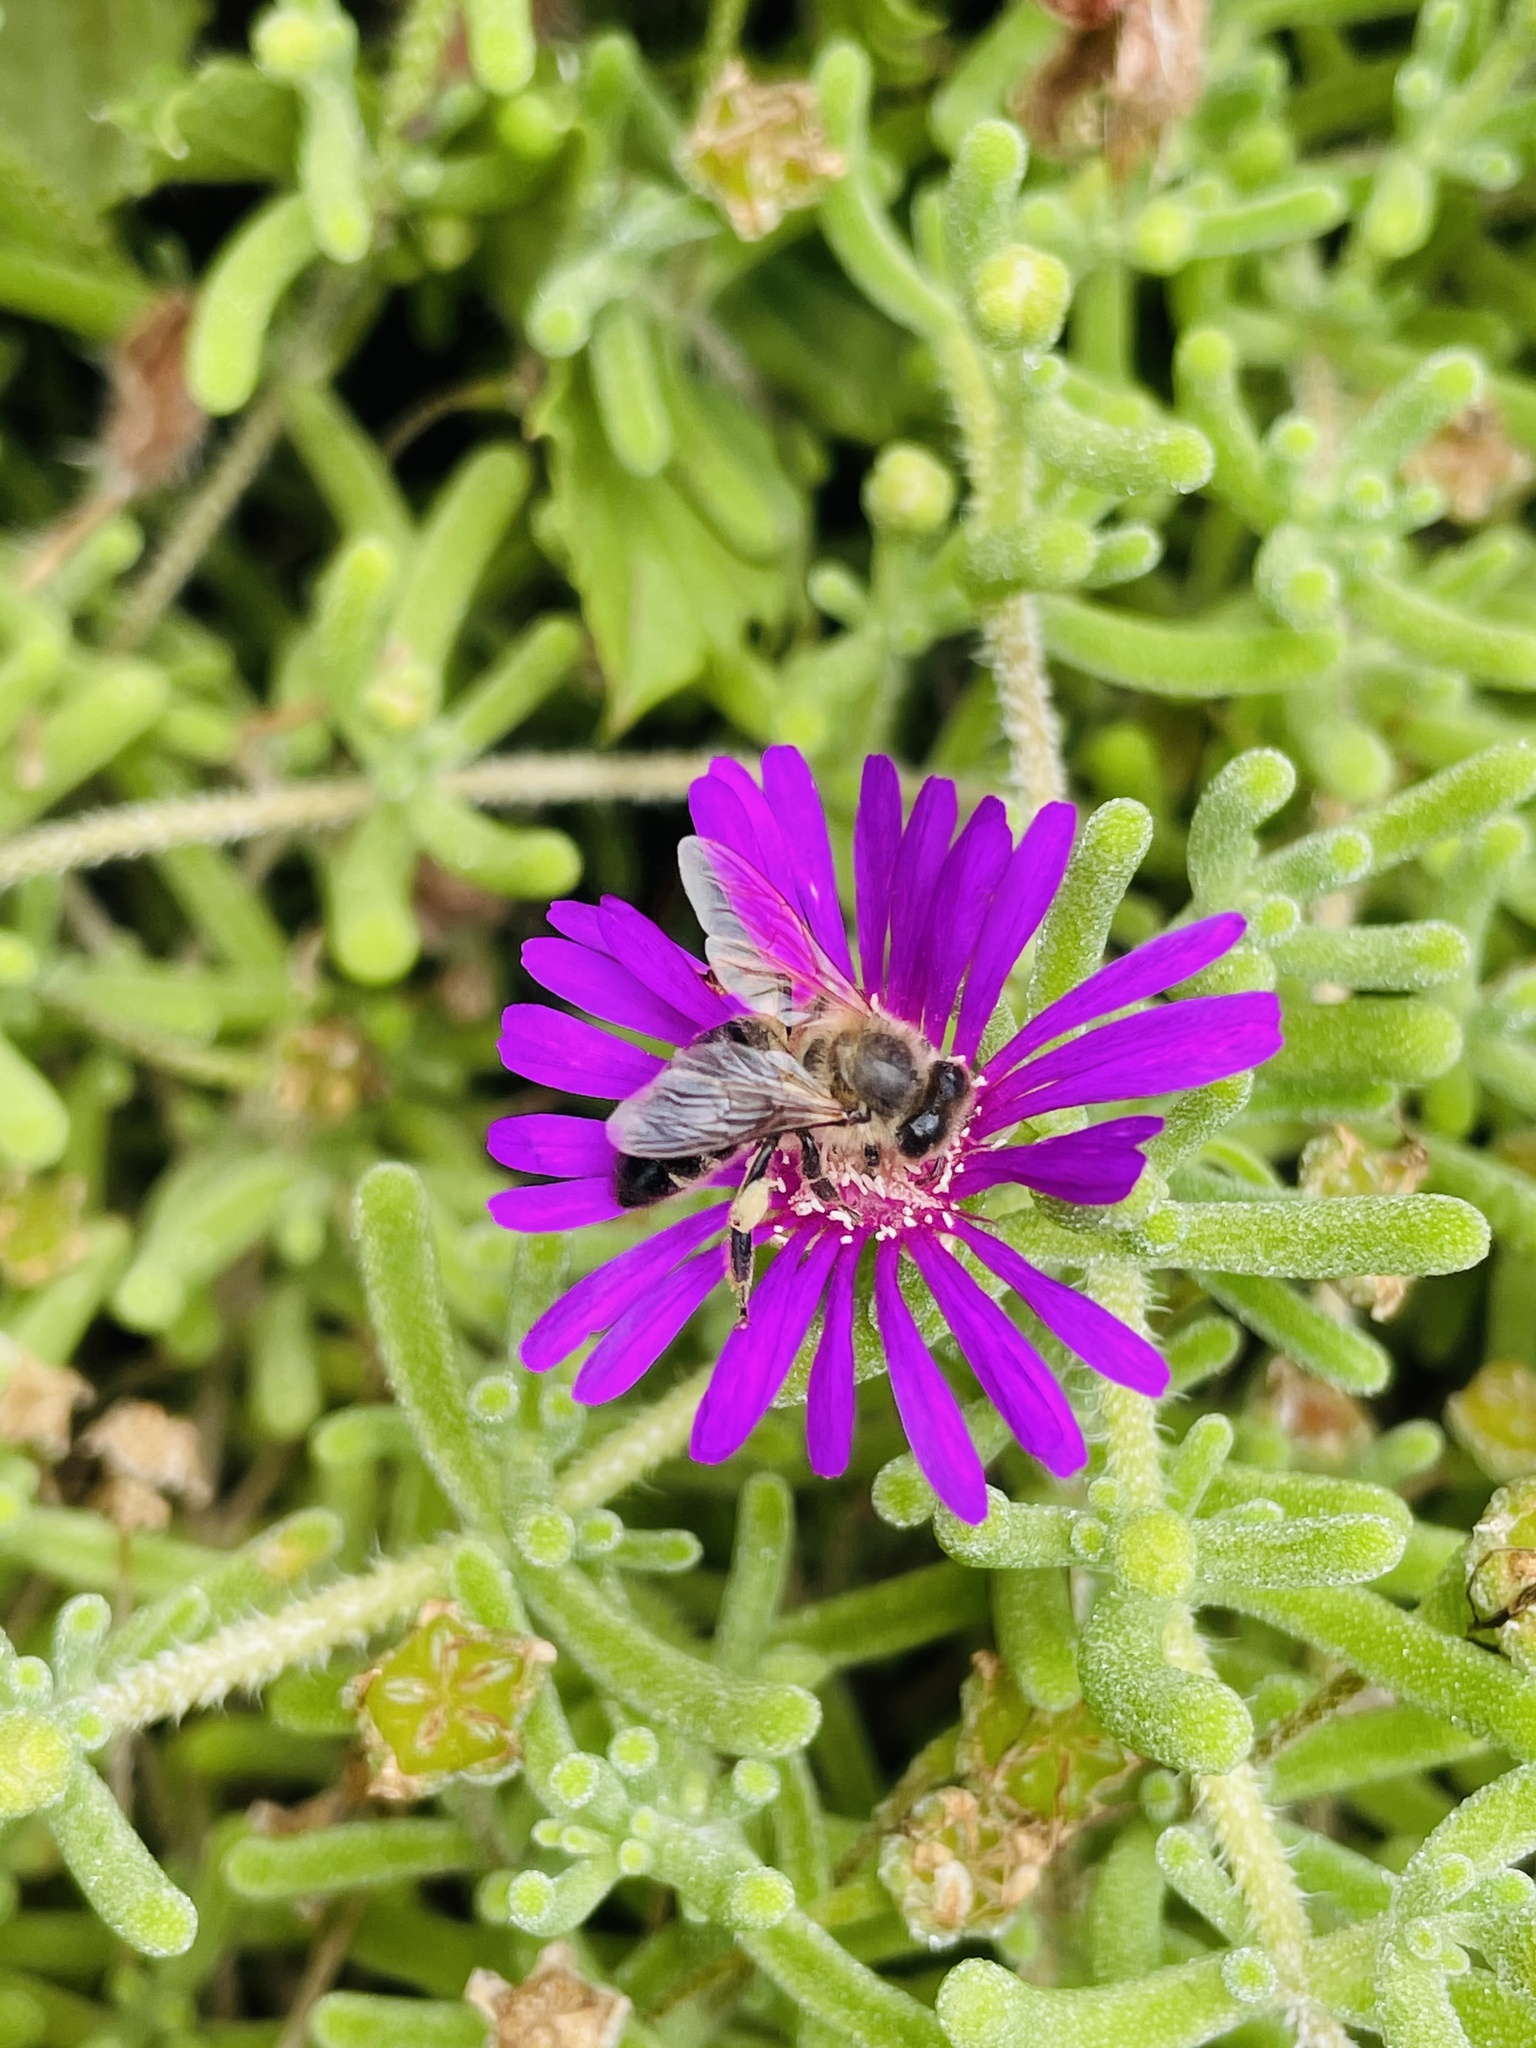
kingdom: Animalia
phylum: Arthropoda
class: Insecta
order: Hymenoptera
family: Apidae
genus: Apis
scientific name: Apis mellifera
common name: Honey bee
